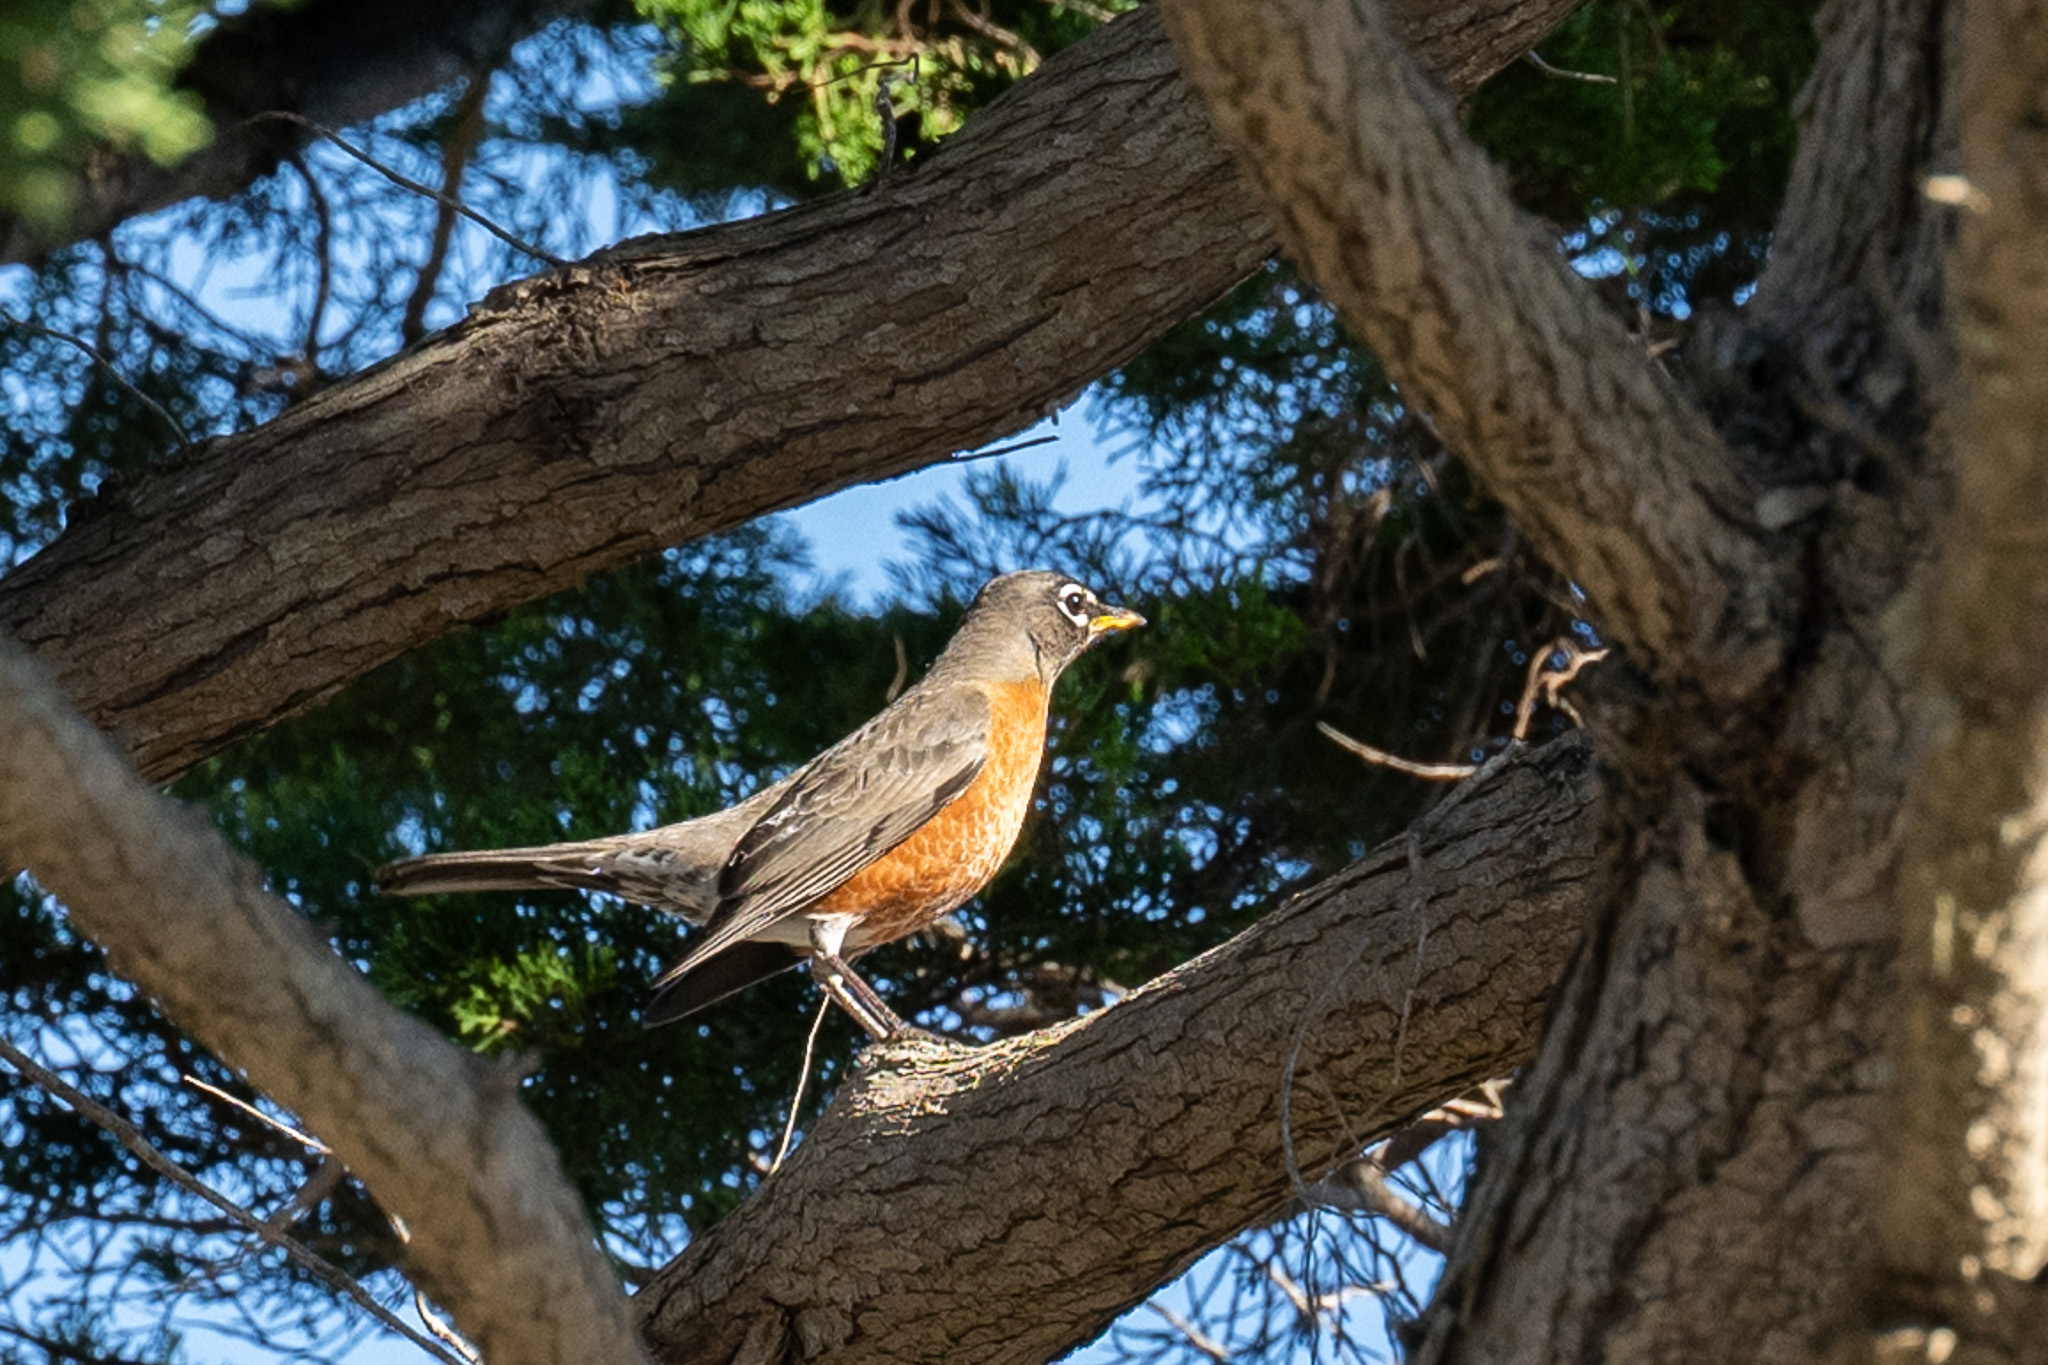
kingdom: Animalia
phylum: Chordata
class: Aves
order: Passeriformes
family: Turdidae
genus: Turdus
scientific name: Turdus migratorius
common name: American robin
